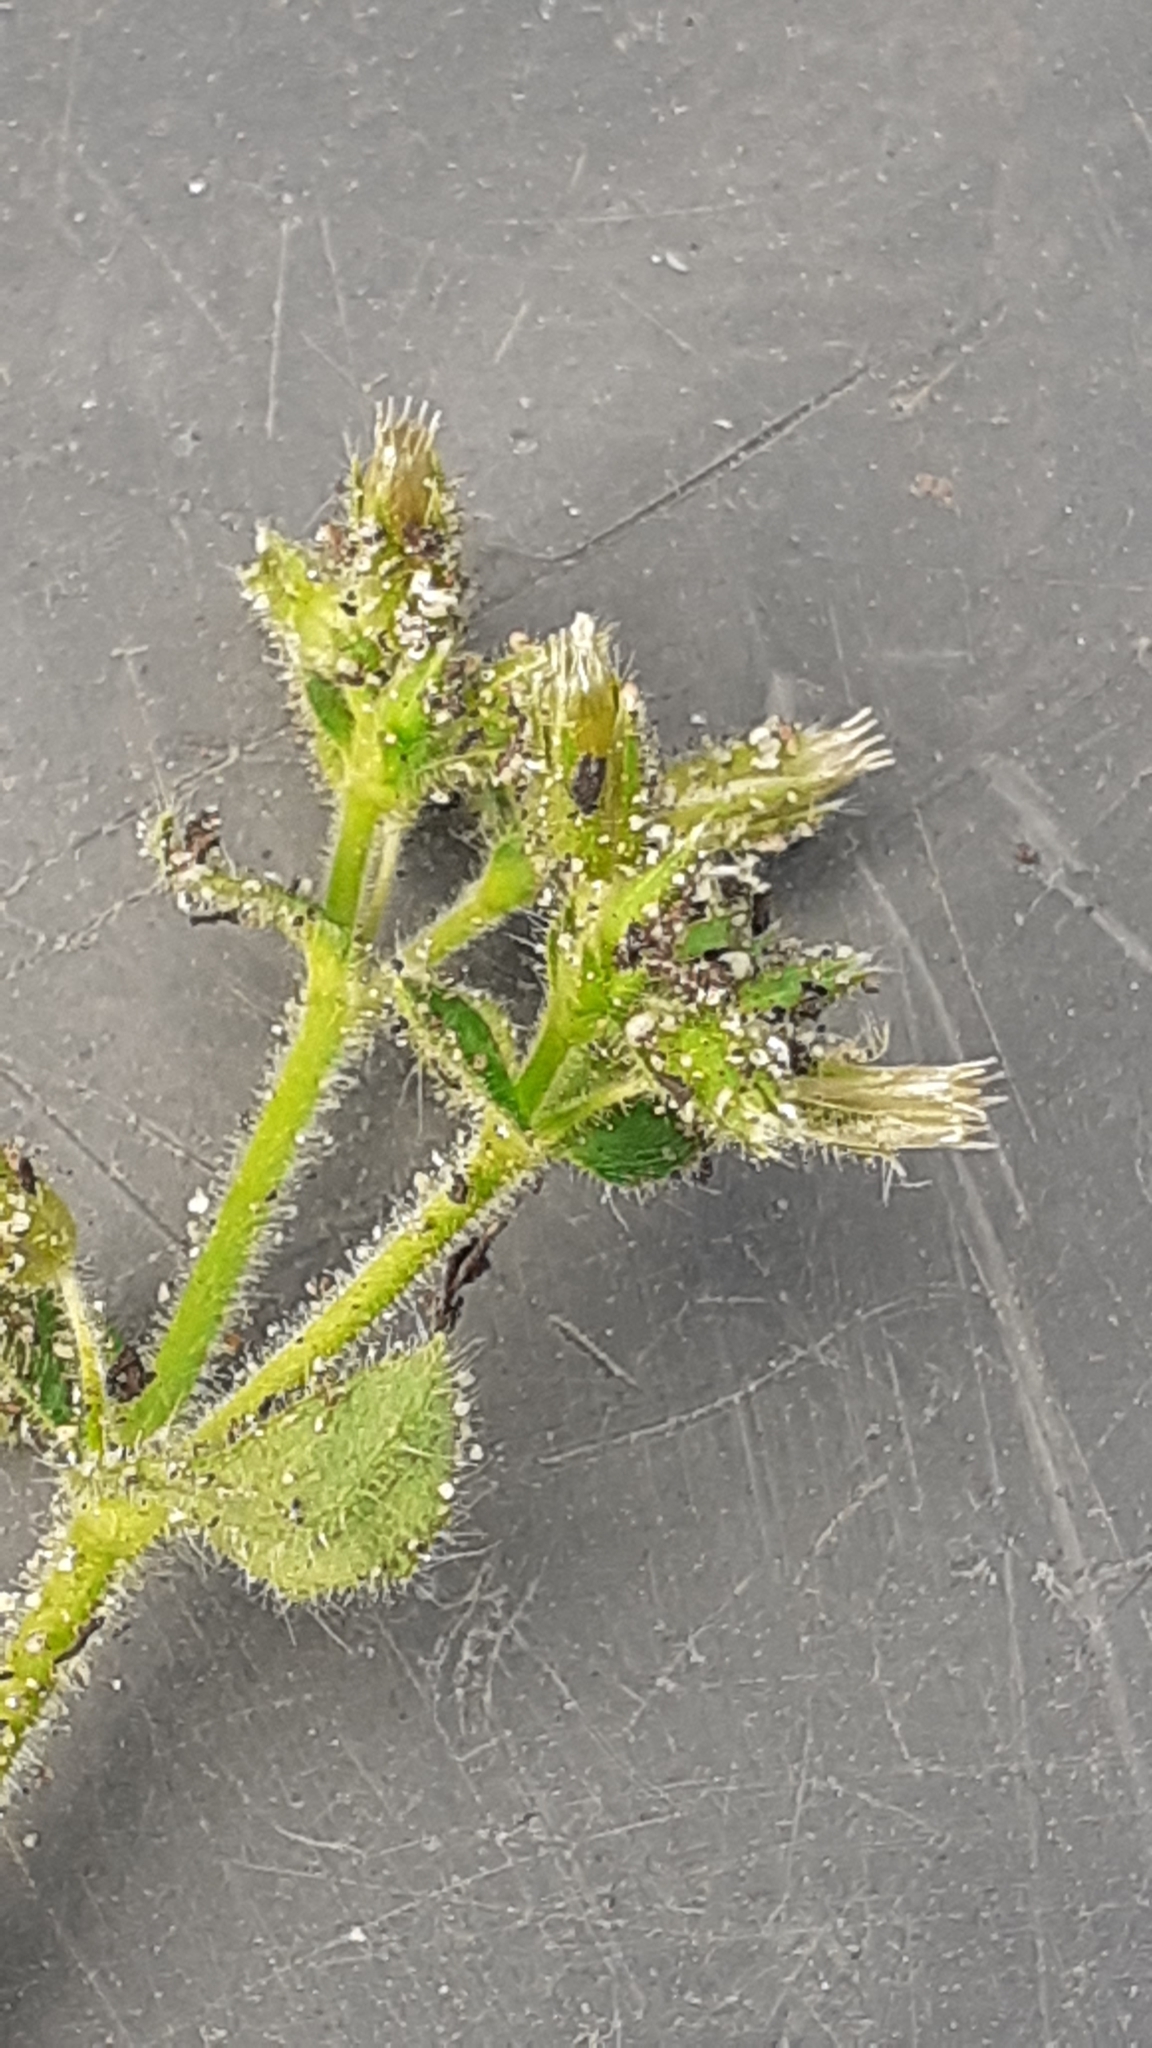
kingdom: Plantae
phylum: Tracheophyta
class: Magnoliopsida
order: Caryophyllales
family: Caryophyllaceae
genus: Cerastium
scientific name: Cerastium glomeratum
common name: Sticky chickweed
